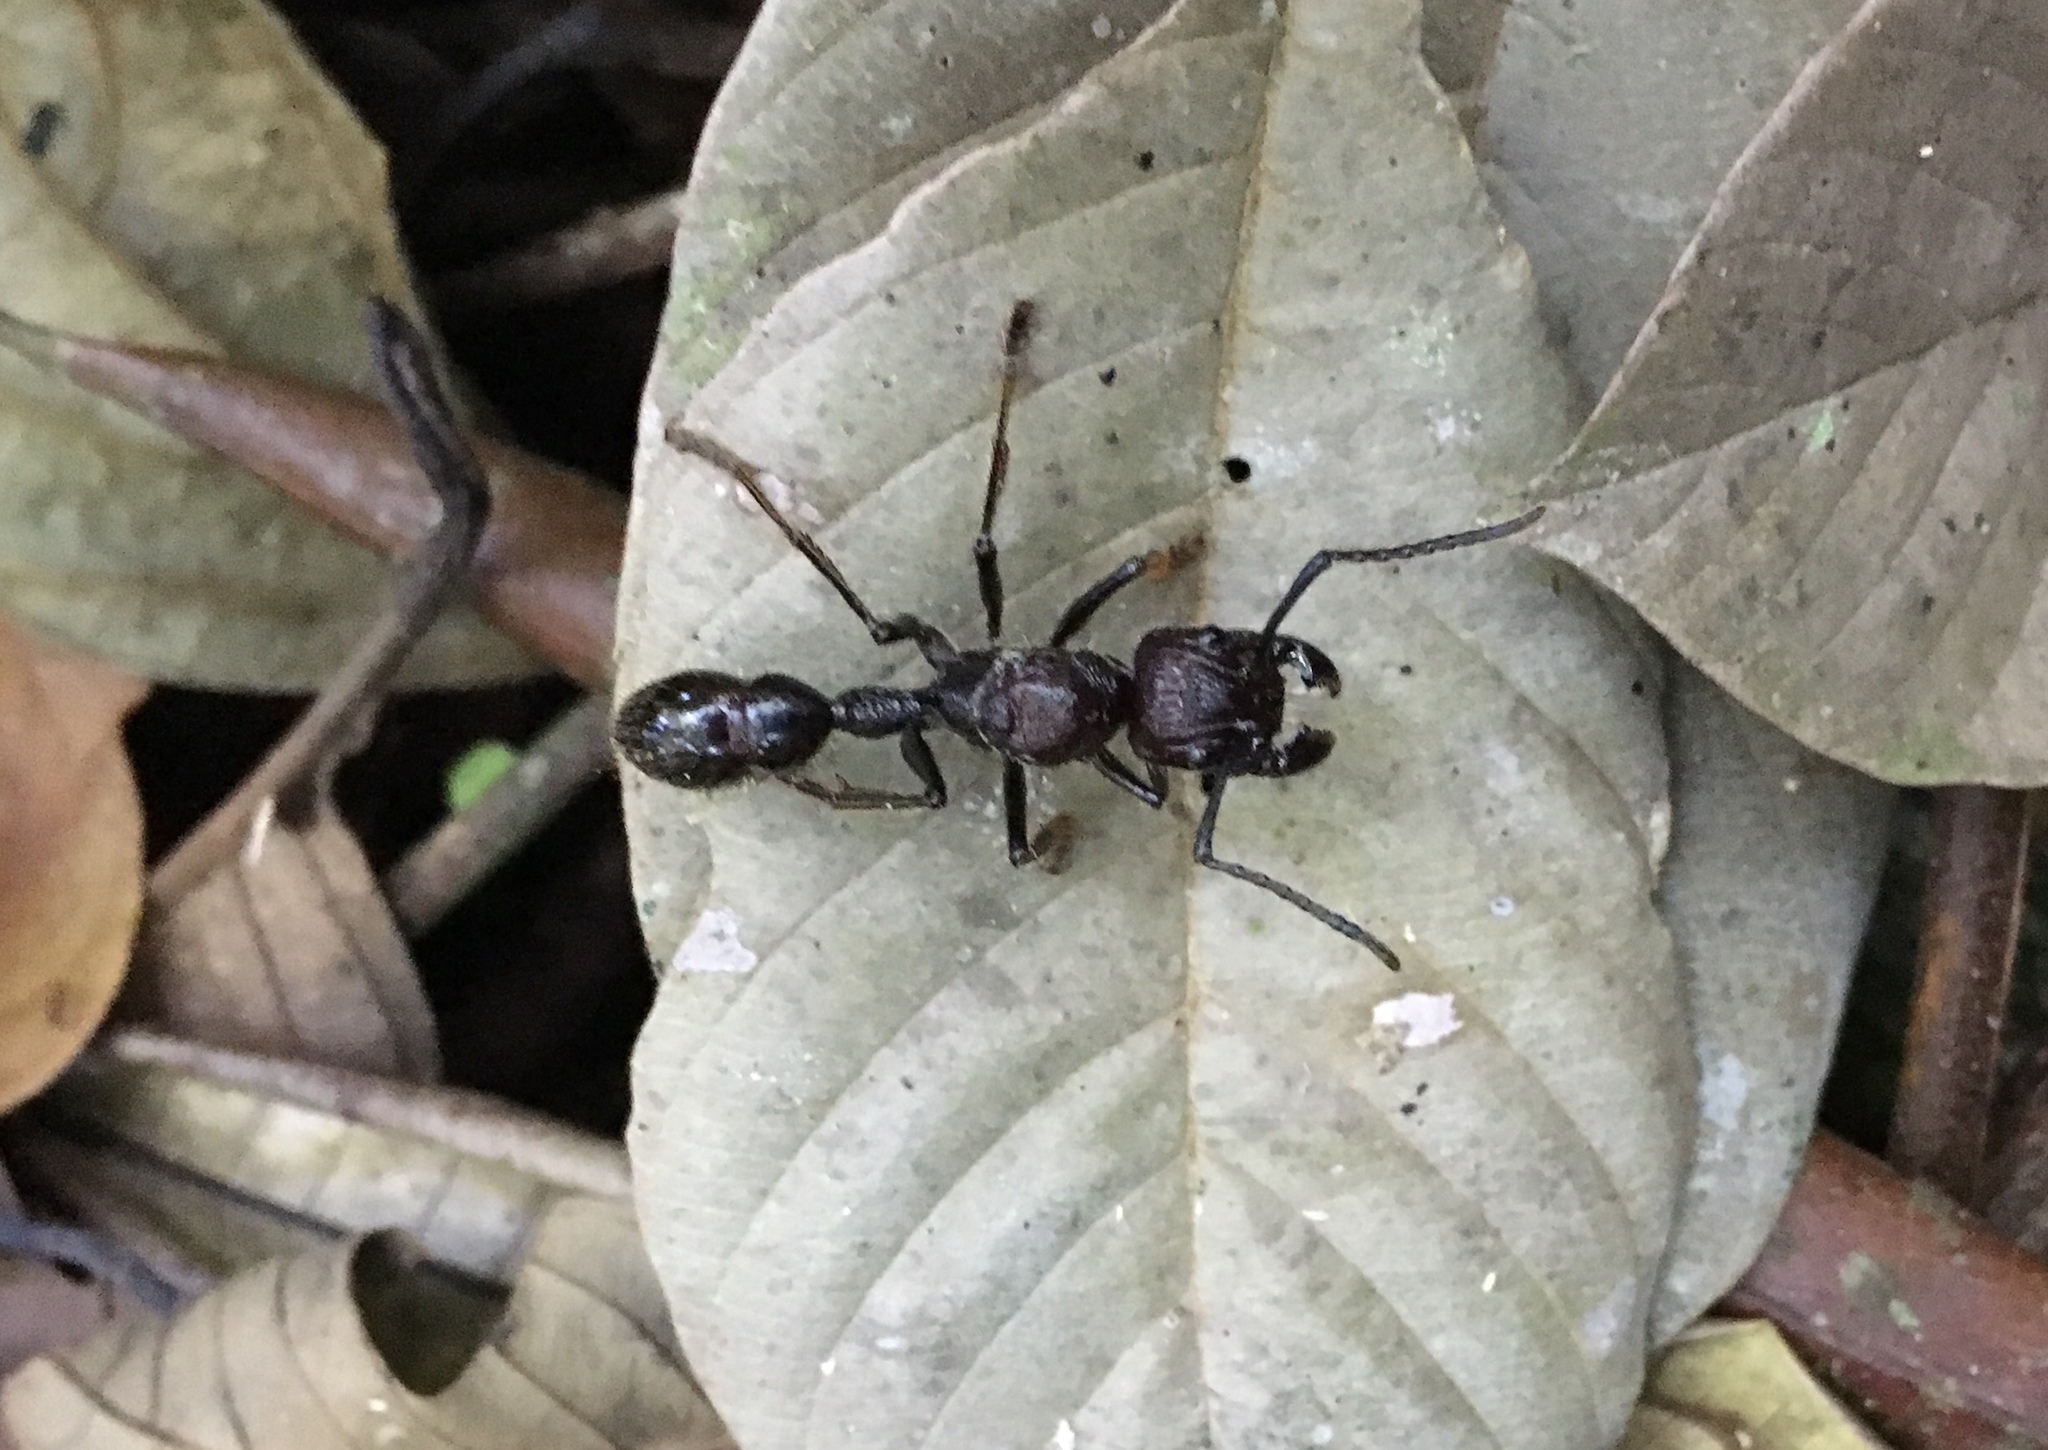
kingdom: Animalia
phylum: Arthropoda
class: Insecta
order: Hymenoptera
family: Formicidae
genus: Paraponera
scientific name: Paraponera clavata
